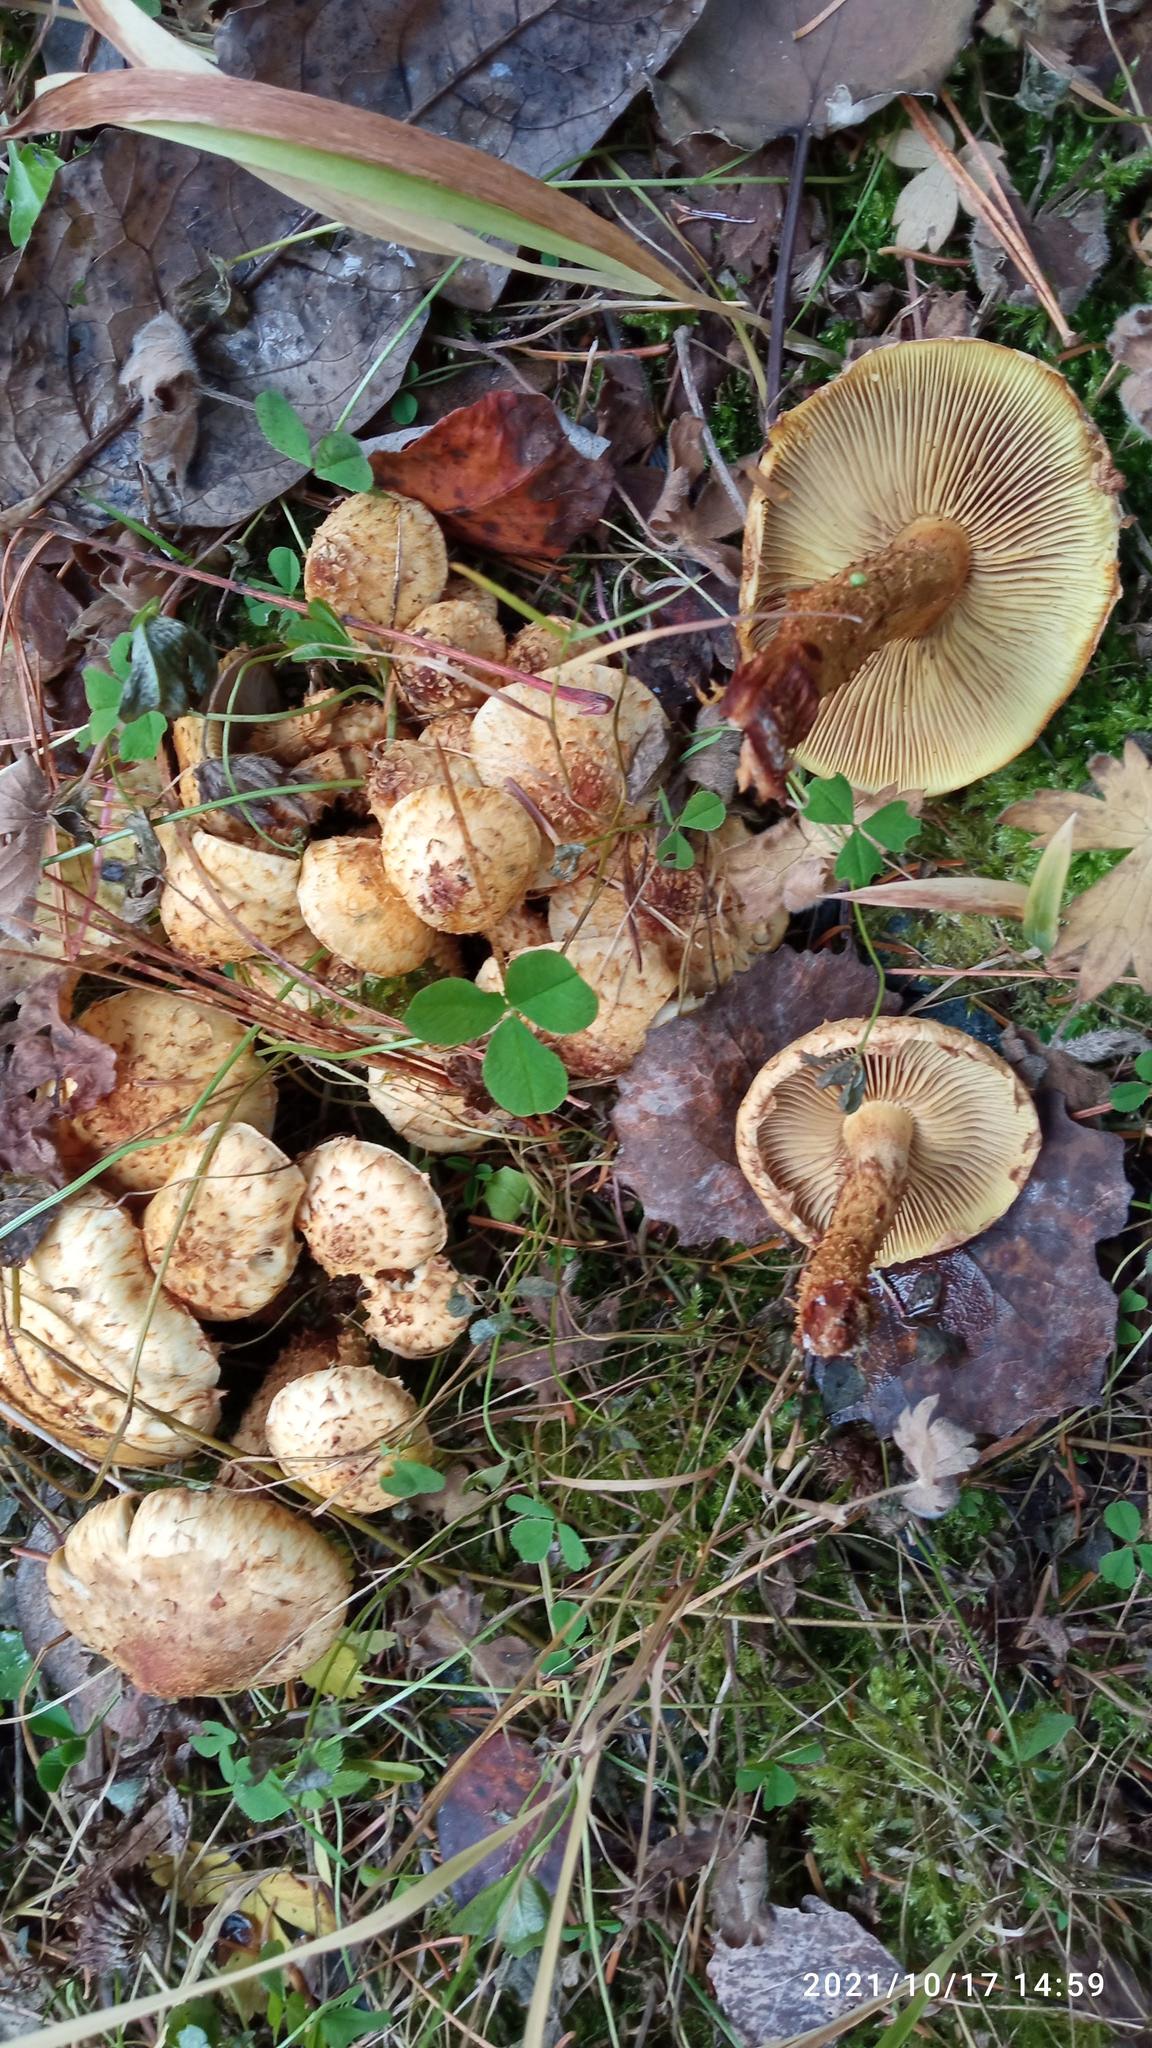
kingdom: Fungi
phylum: Basidiomycota
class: Agaricomycetes
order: Agaricales
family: Strophariaceae
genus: Pholiota
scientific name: Pholiota squarrosa
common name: Shaggy pholiota
